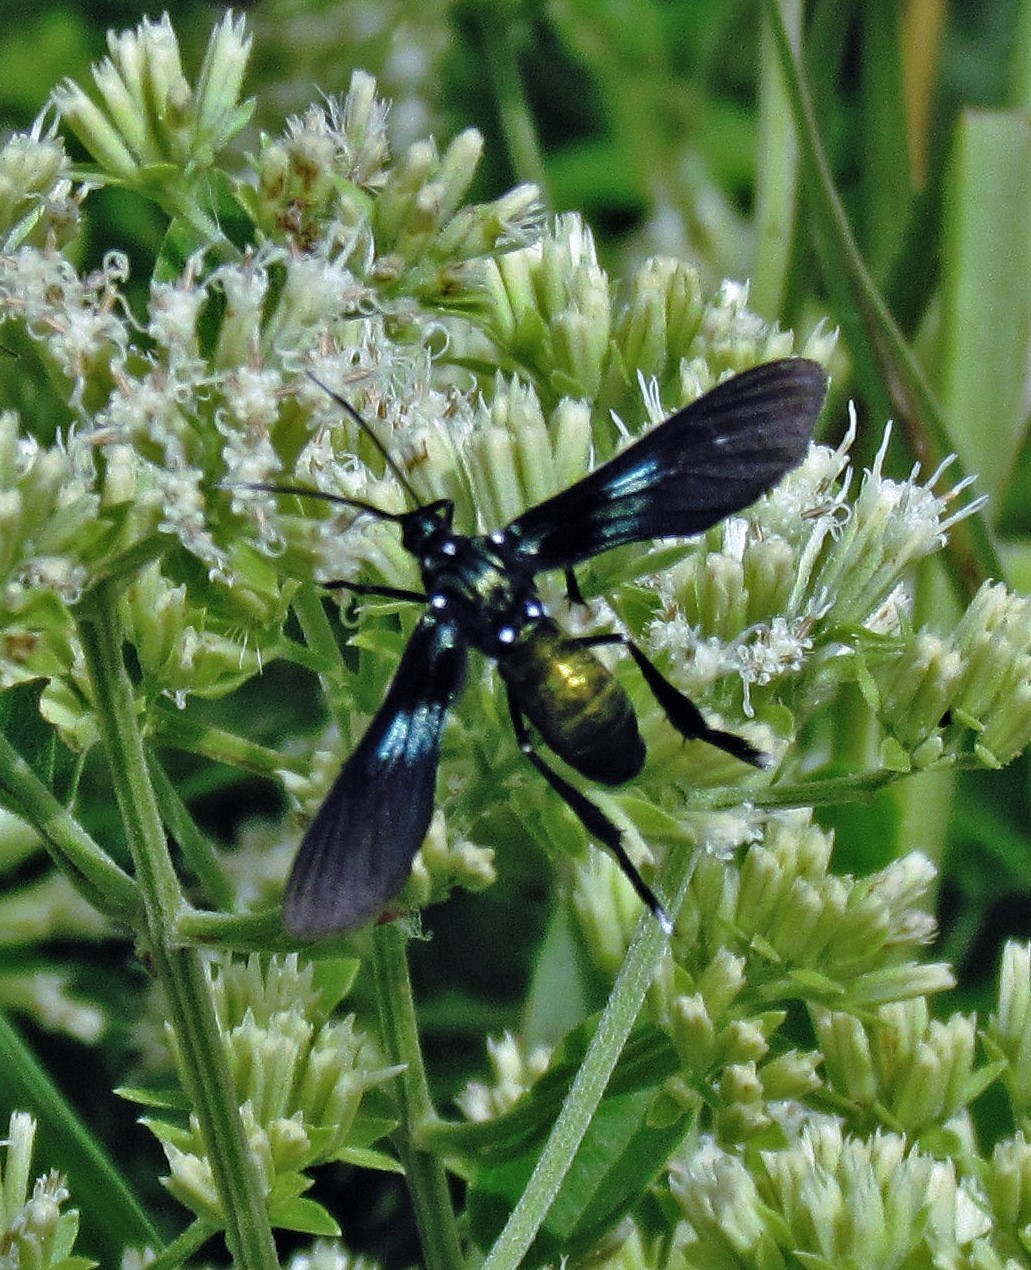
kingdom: Animalia
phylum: Arthropoda
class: Insecta
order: Lepidoptera
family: Erebidae
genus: Macrocneme
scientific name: Macrocneme
